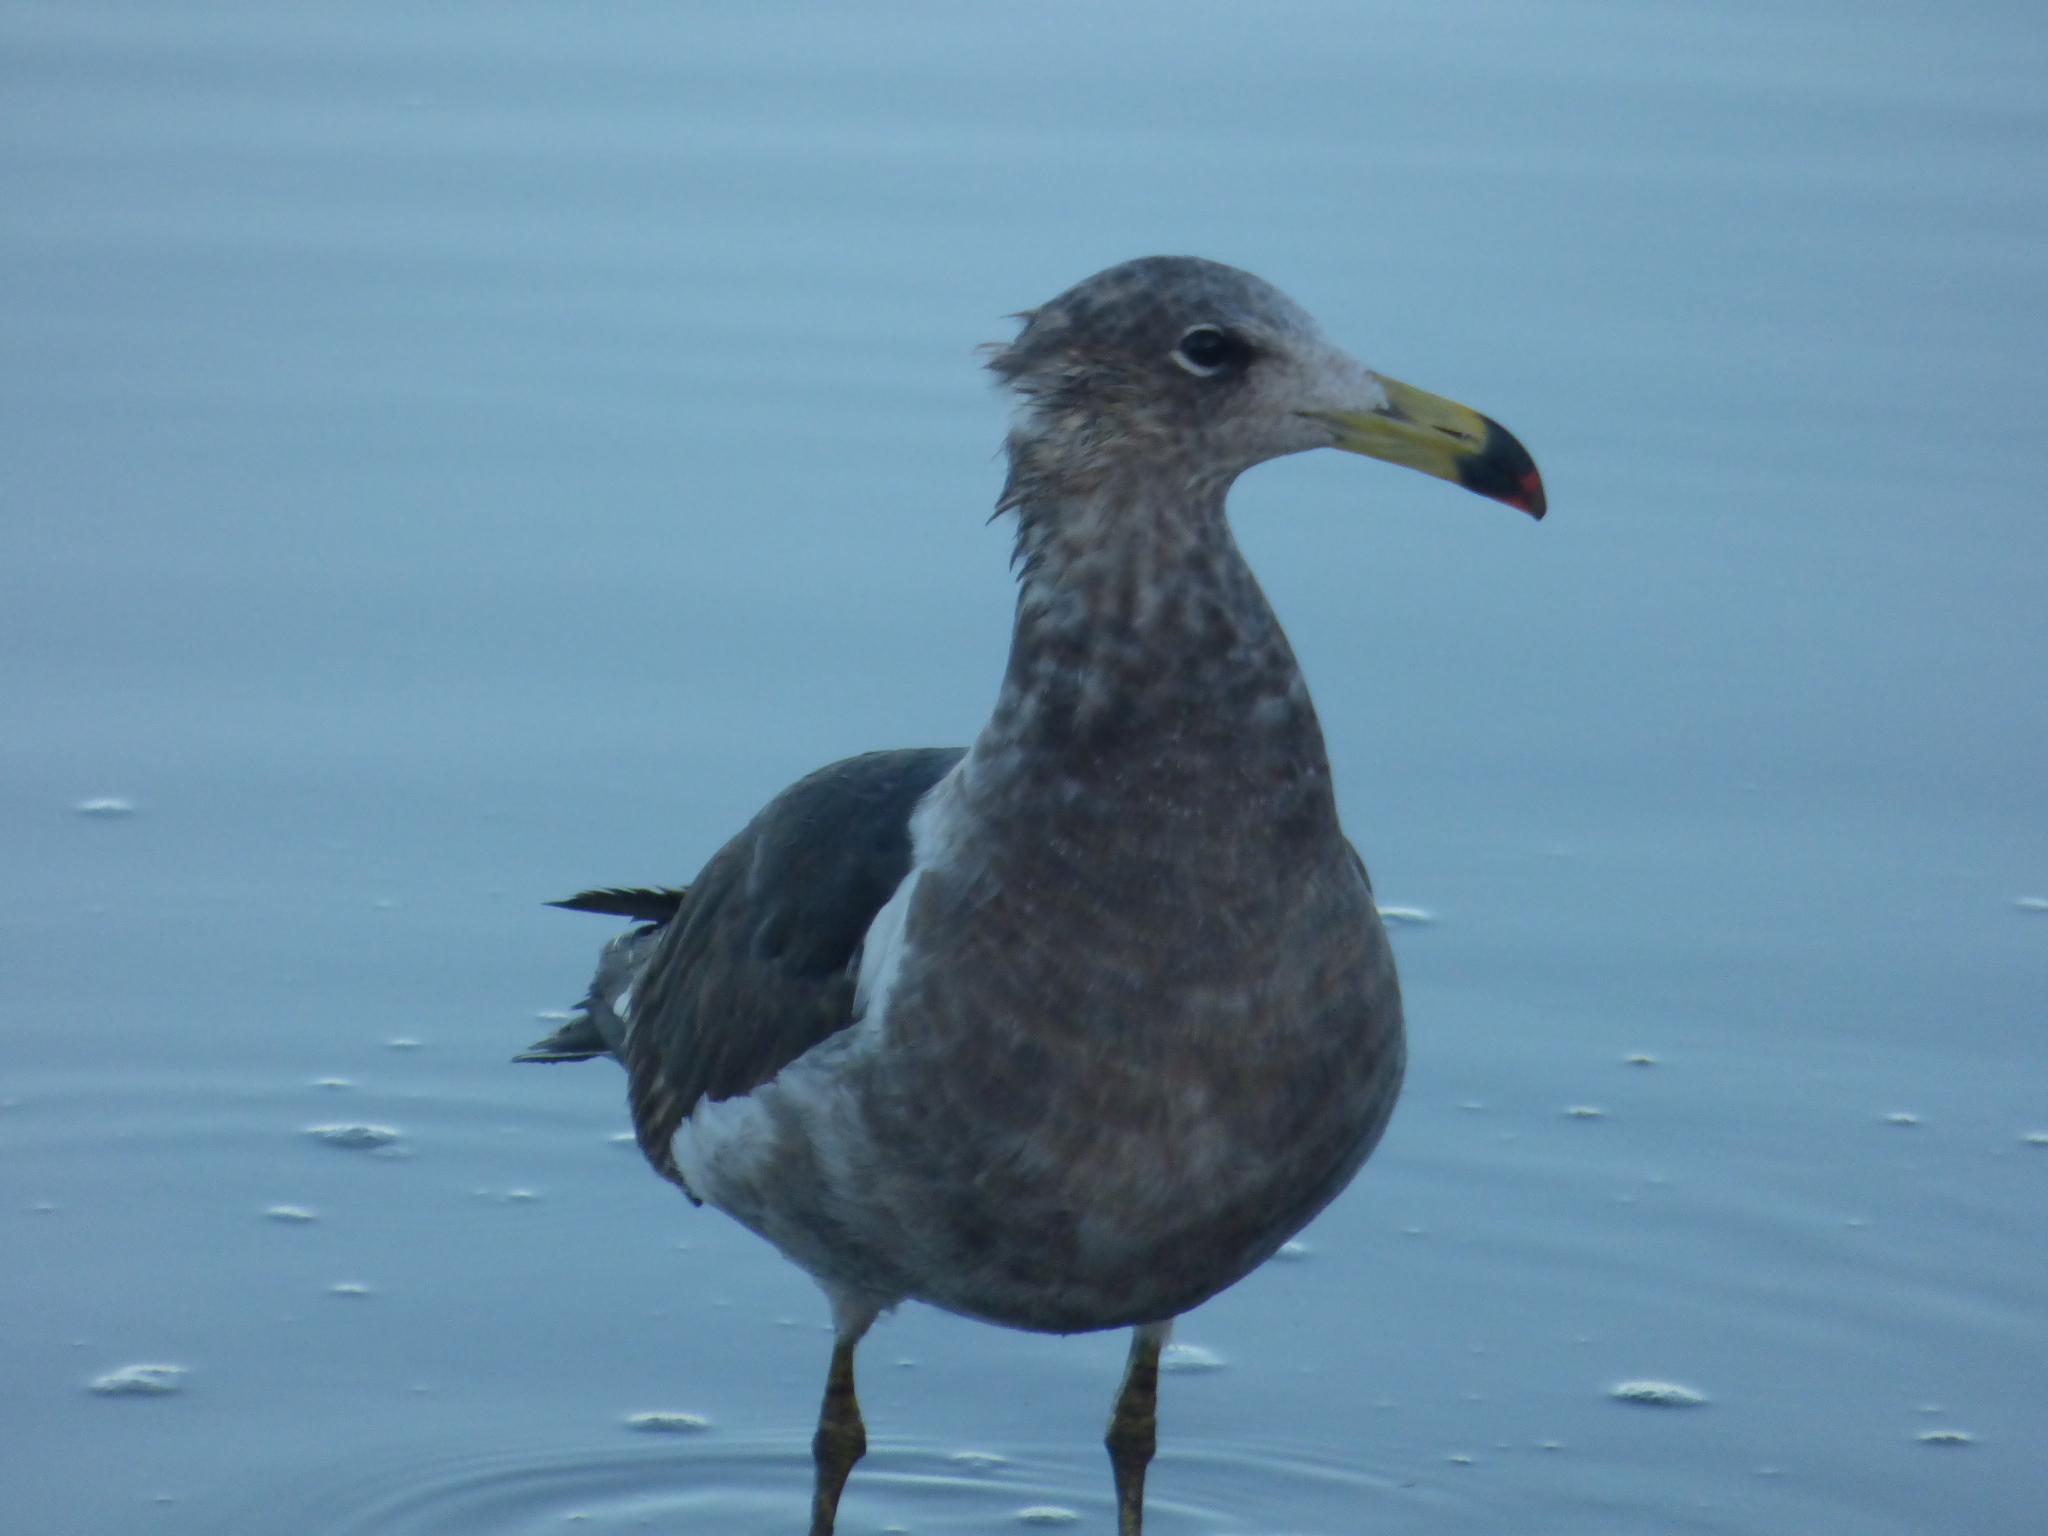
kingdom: Animalia
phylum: Chordata
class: Aves
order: Charadriiformes
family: Laridae
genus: Larus
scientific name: Larus atlanticus
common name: Olrog's gull
